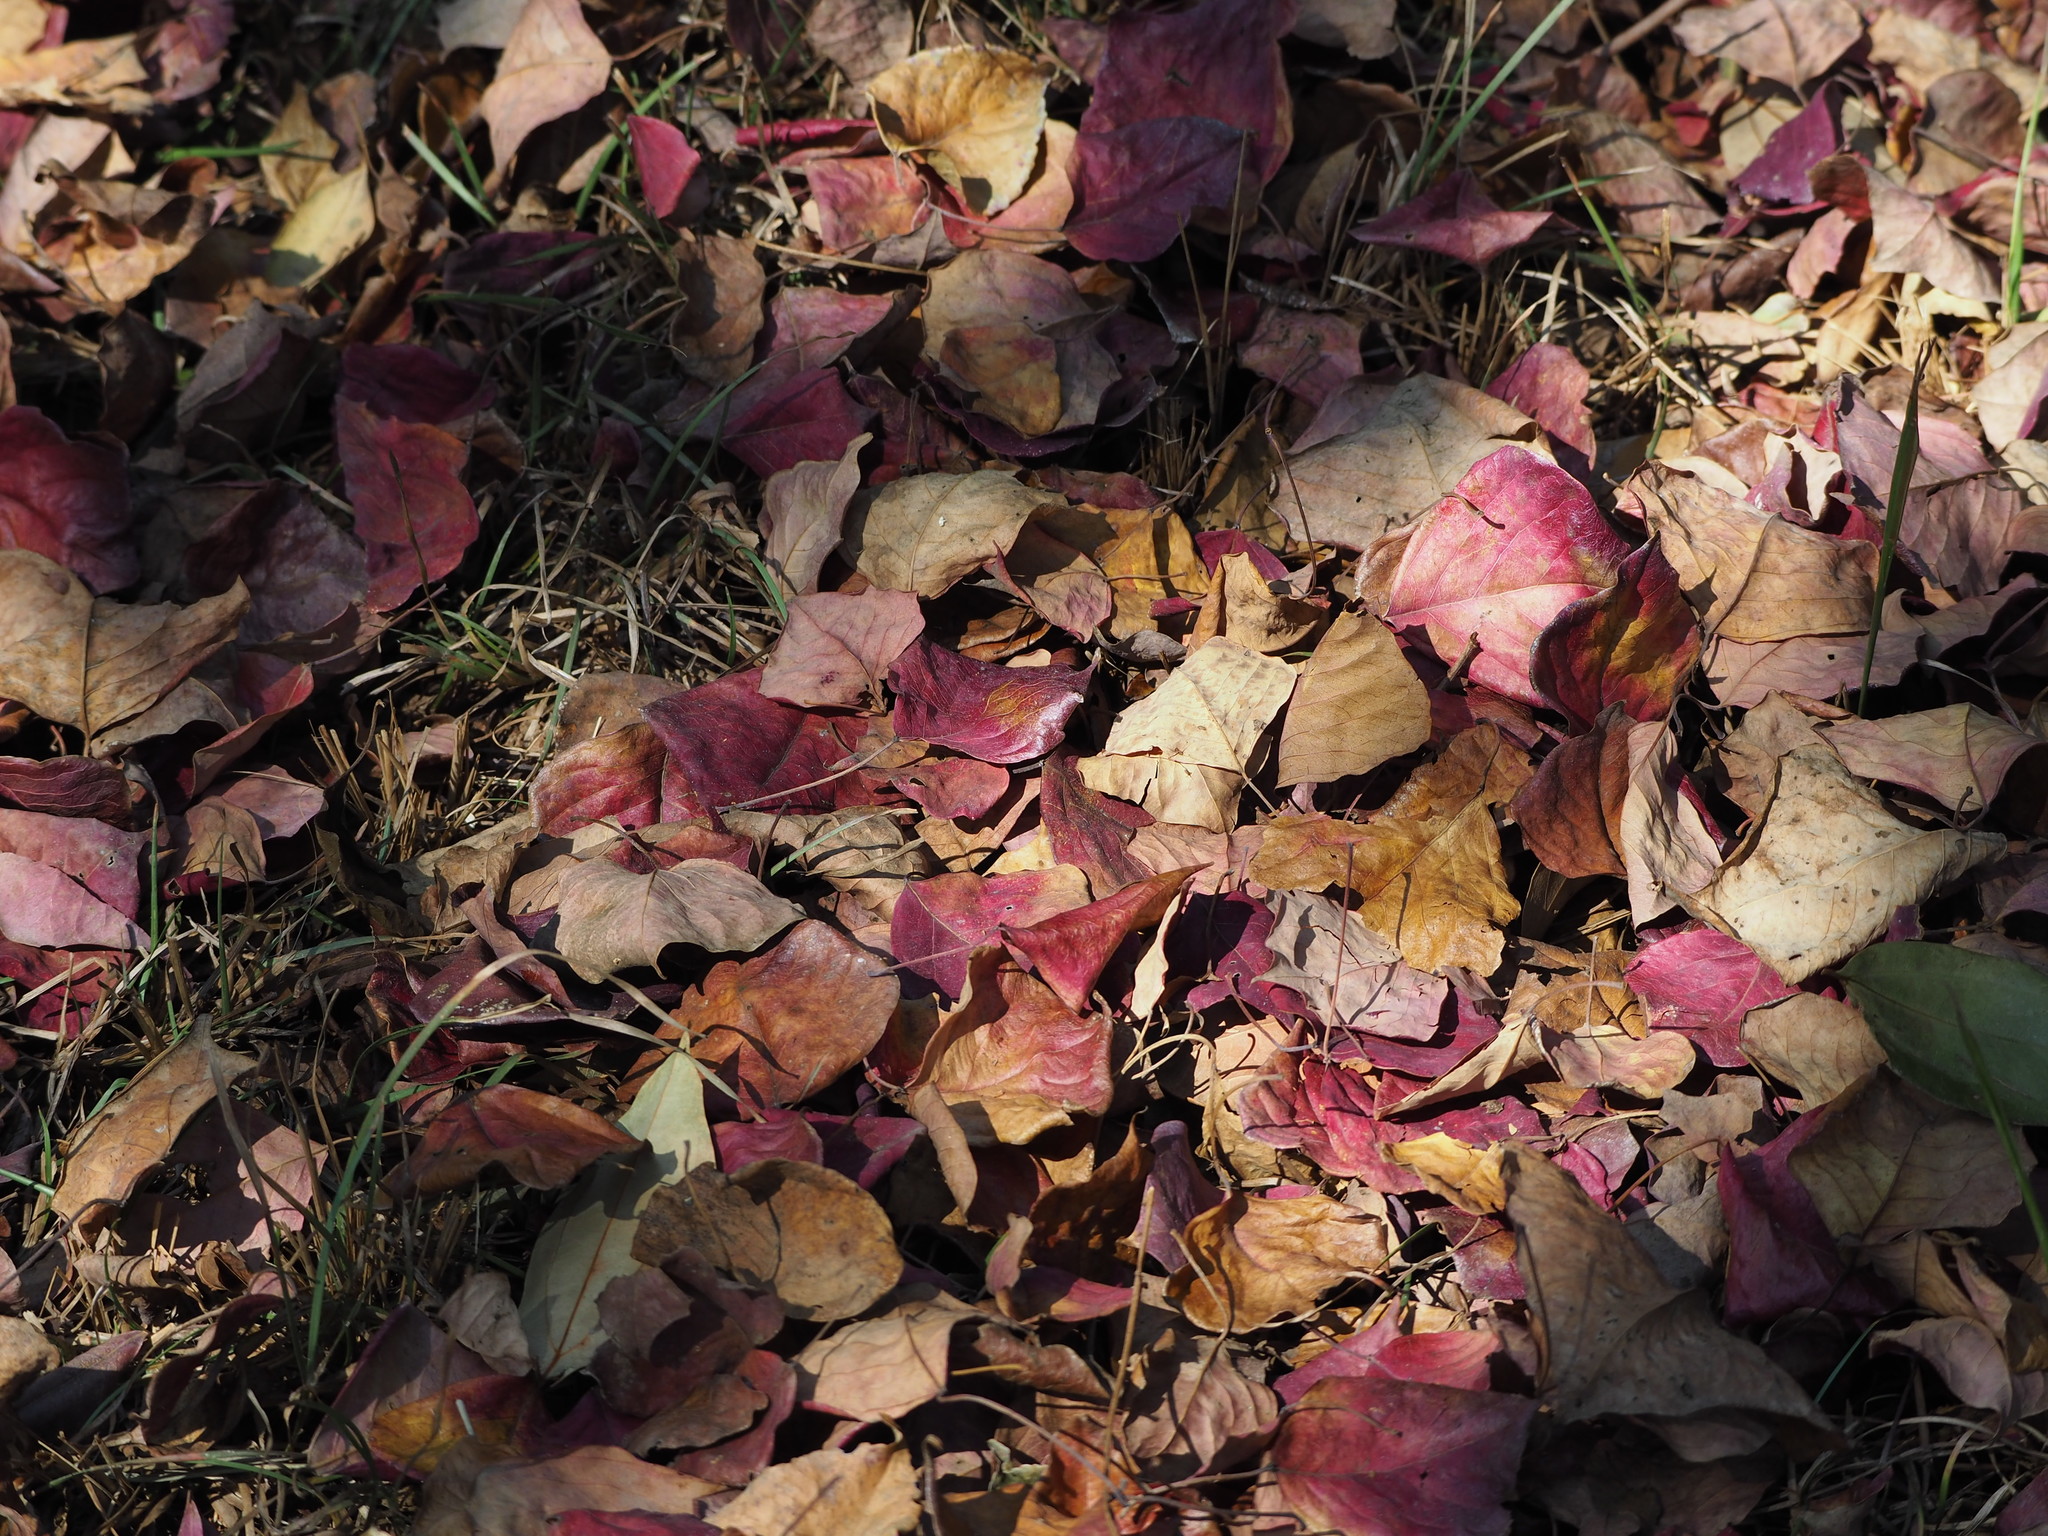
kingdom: Plantae
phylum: Tracheophyta
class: Magnoliopsida
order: Malpighiales
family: Euphorbiaceae
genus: Triadica
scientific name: Triadica sebifera
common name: Chinese tallow
